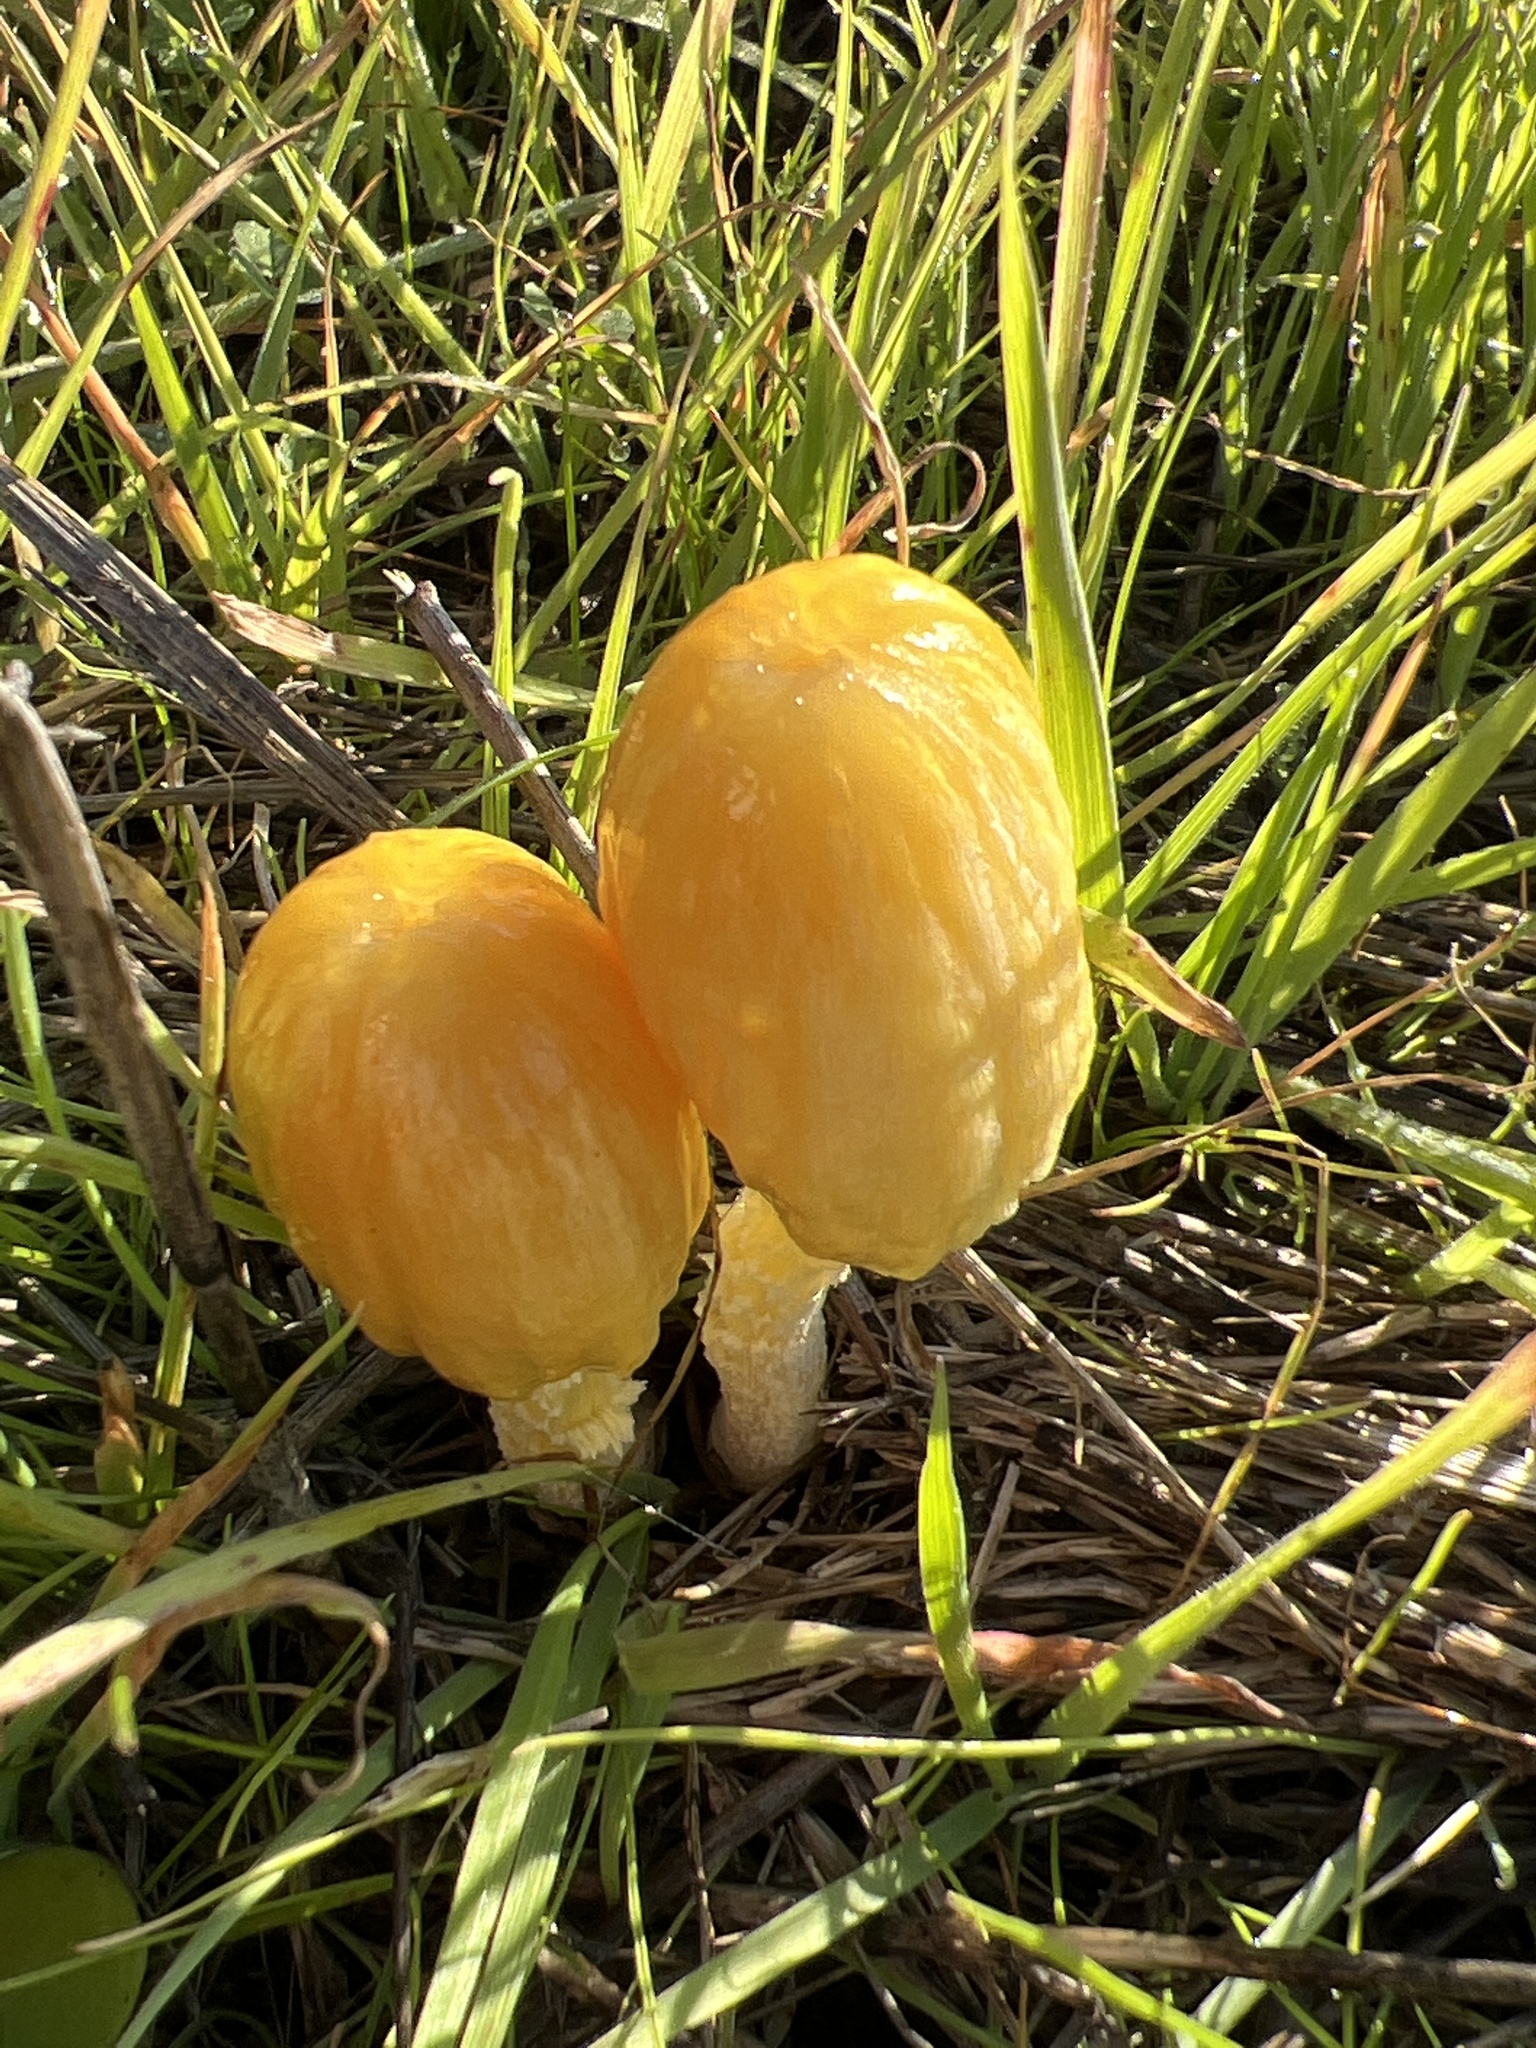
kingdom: Fungi
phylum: Basidiomycota
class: Agaricomycetes
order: Agaricales
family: Bolbitiaceae
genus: Bolbitius
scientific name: Bolbitius titubans
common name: Yellow fieldcap
